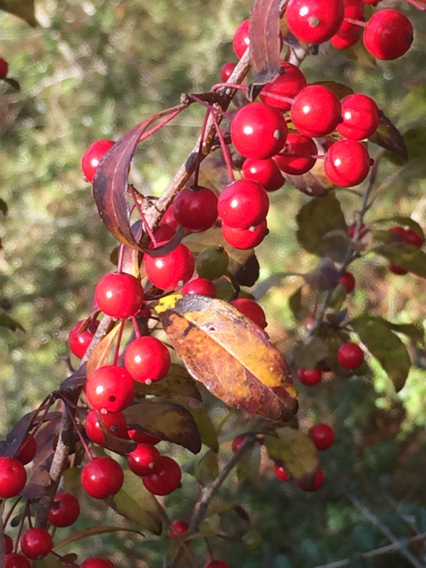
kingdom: Plantae
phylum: Tracheophyta
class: Magnoliopsida
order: Aquifoliales
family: Aquifoliaceae
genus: Ilex
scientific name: Ilex longipes
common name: Georgia holly
